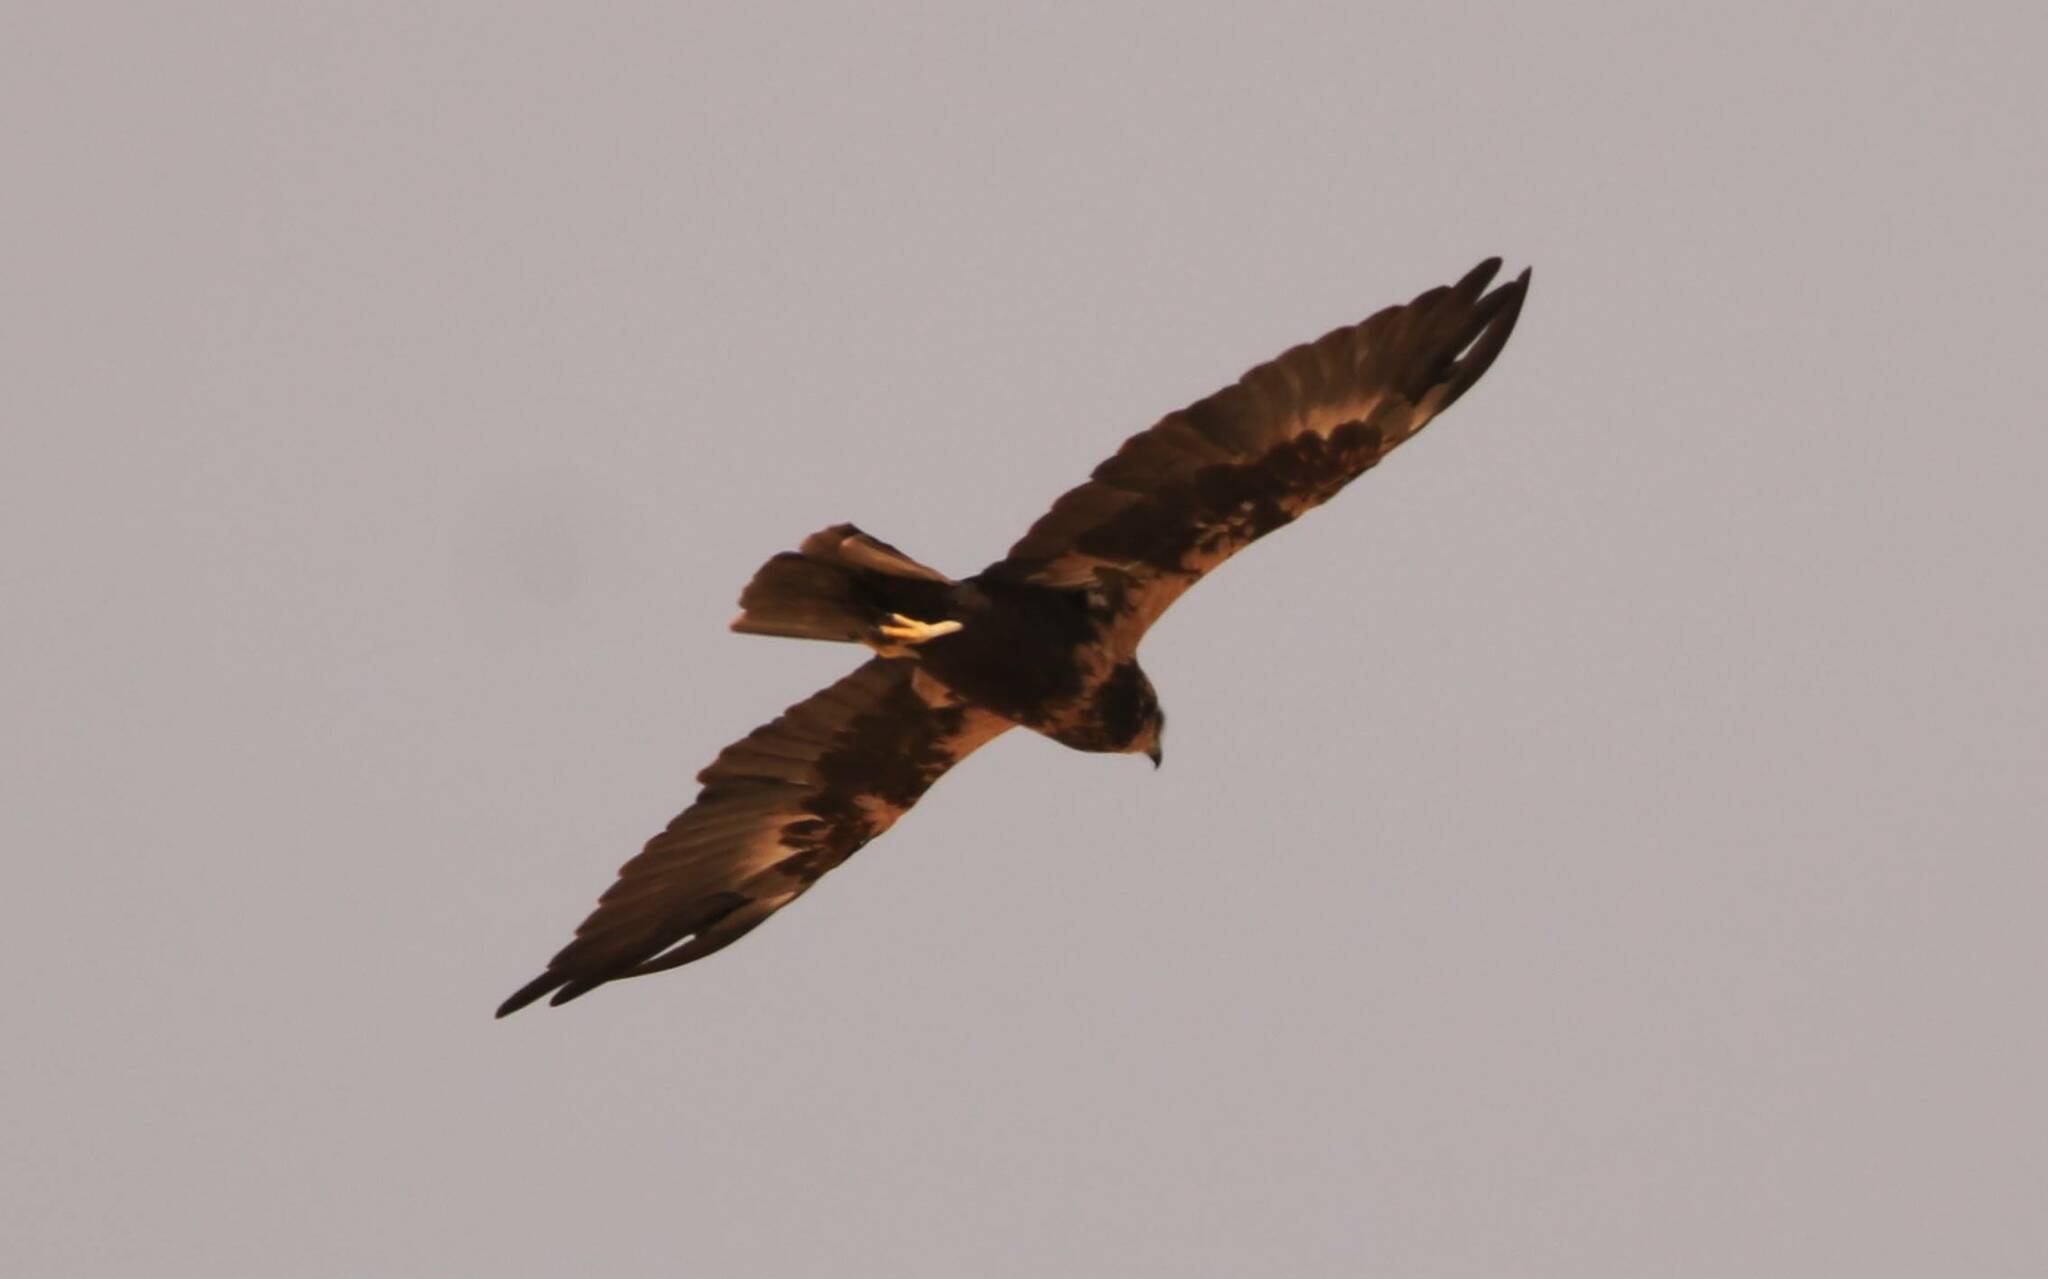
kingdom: Animalia
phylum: Chordata
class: Aves
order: Accipitriformes
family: Accipitridae
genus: Circus
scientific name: Circus aeruginosus
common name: Western marsh harrier
